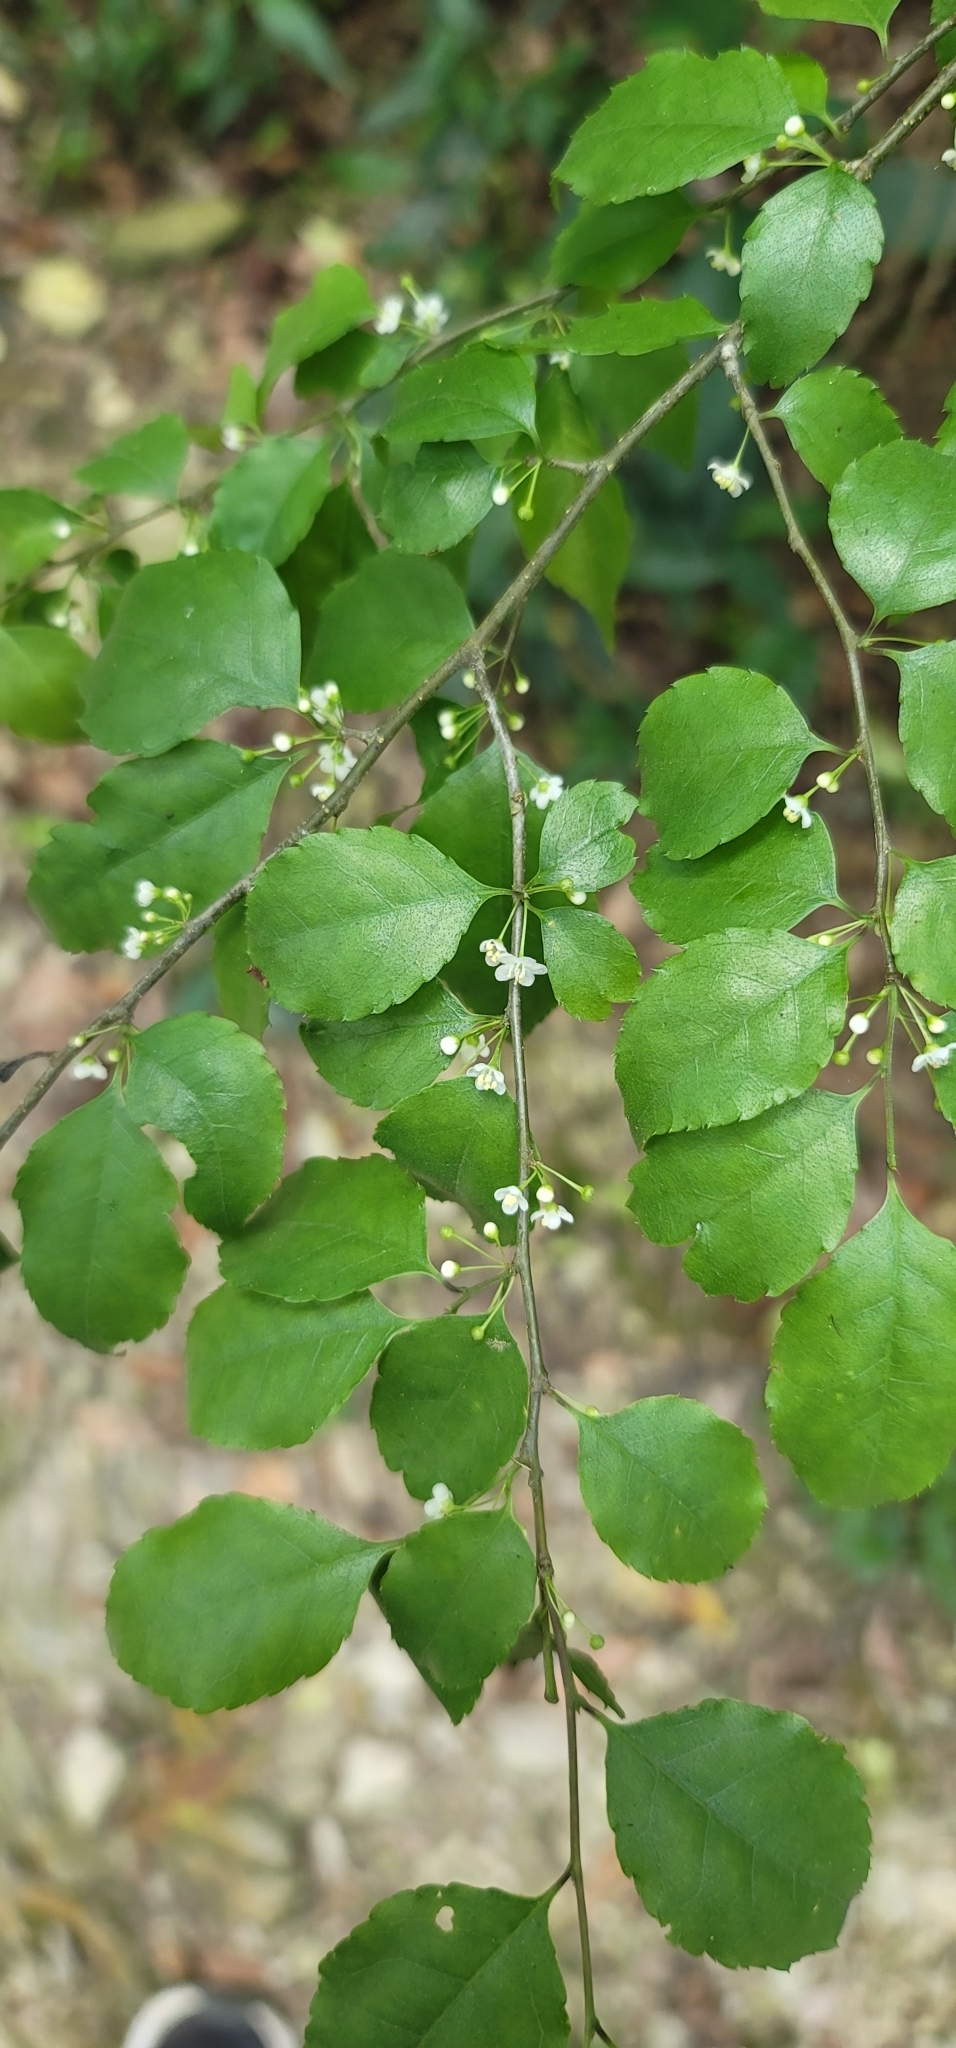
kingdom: Plantae
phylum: Tracheophyta
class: Magnoliopsida
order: Aquifoliales
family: Aquifoliaceae
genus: Ilex
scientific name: Ilex asprella
